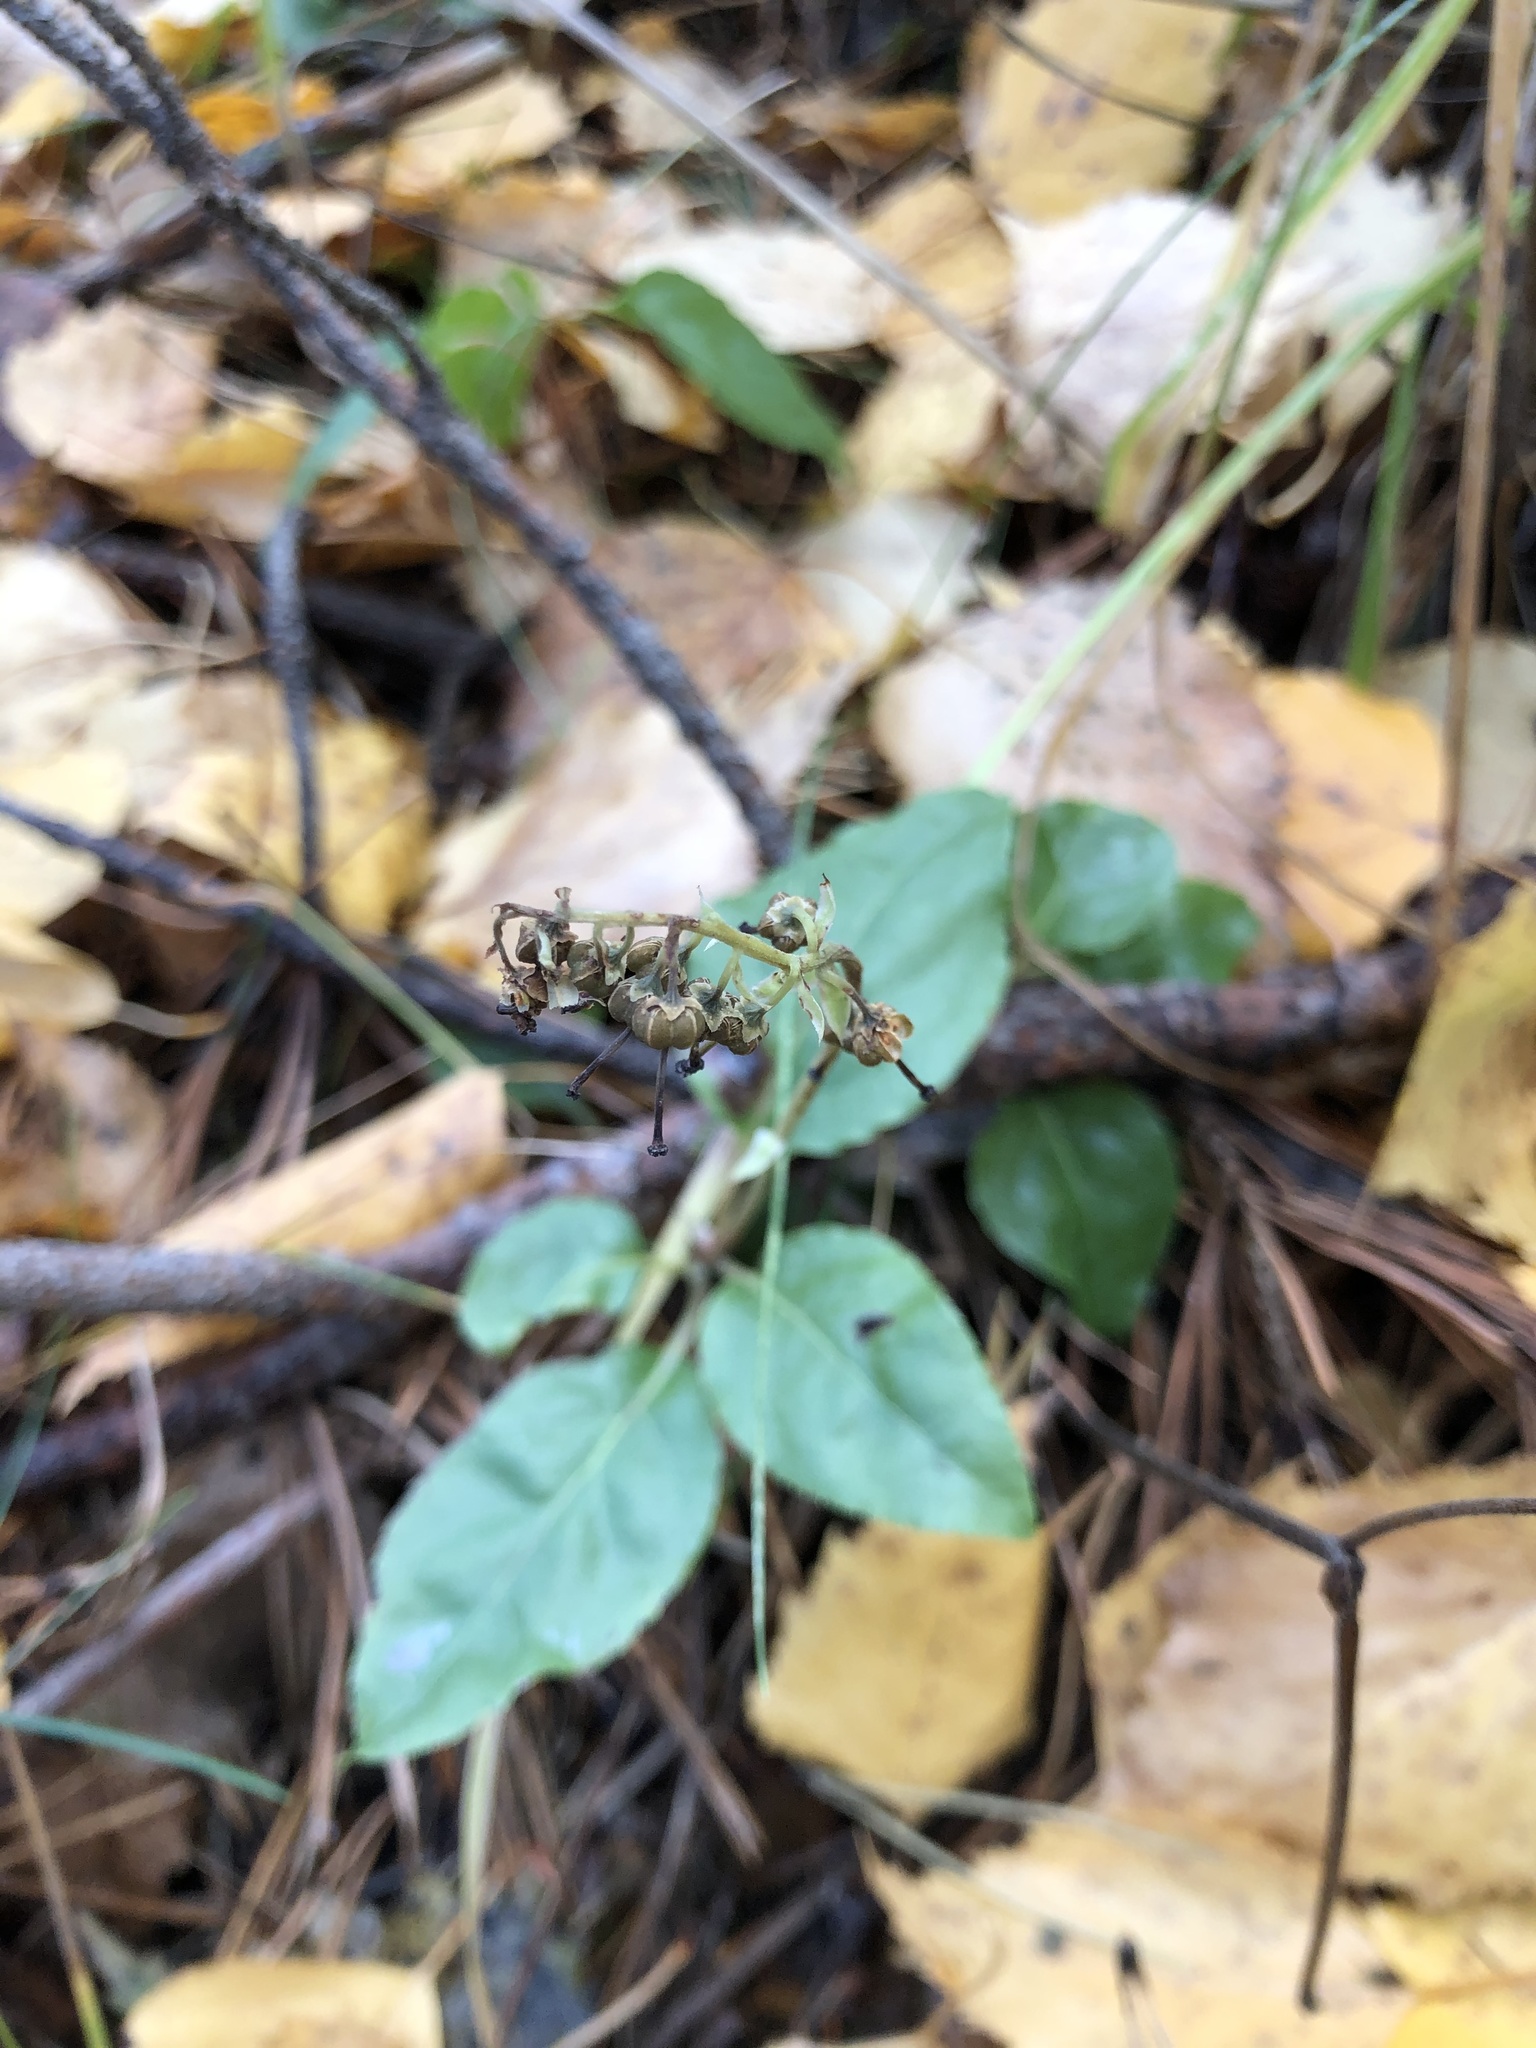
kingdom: Plantae
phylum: Tracheophyta
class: Magnoliopsida
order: Ericales
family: Ericaceae
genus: Orthilia
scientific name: Orthilia secunda
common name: One-sided orthilia
